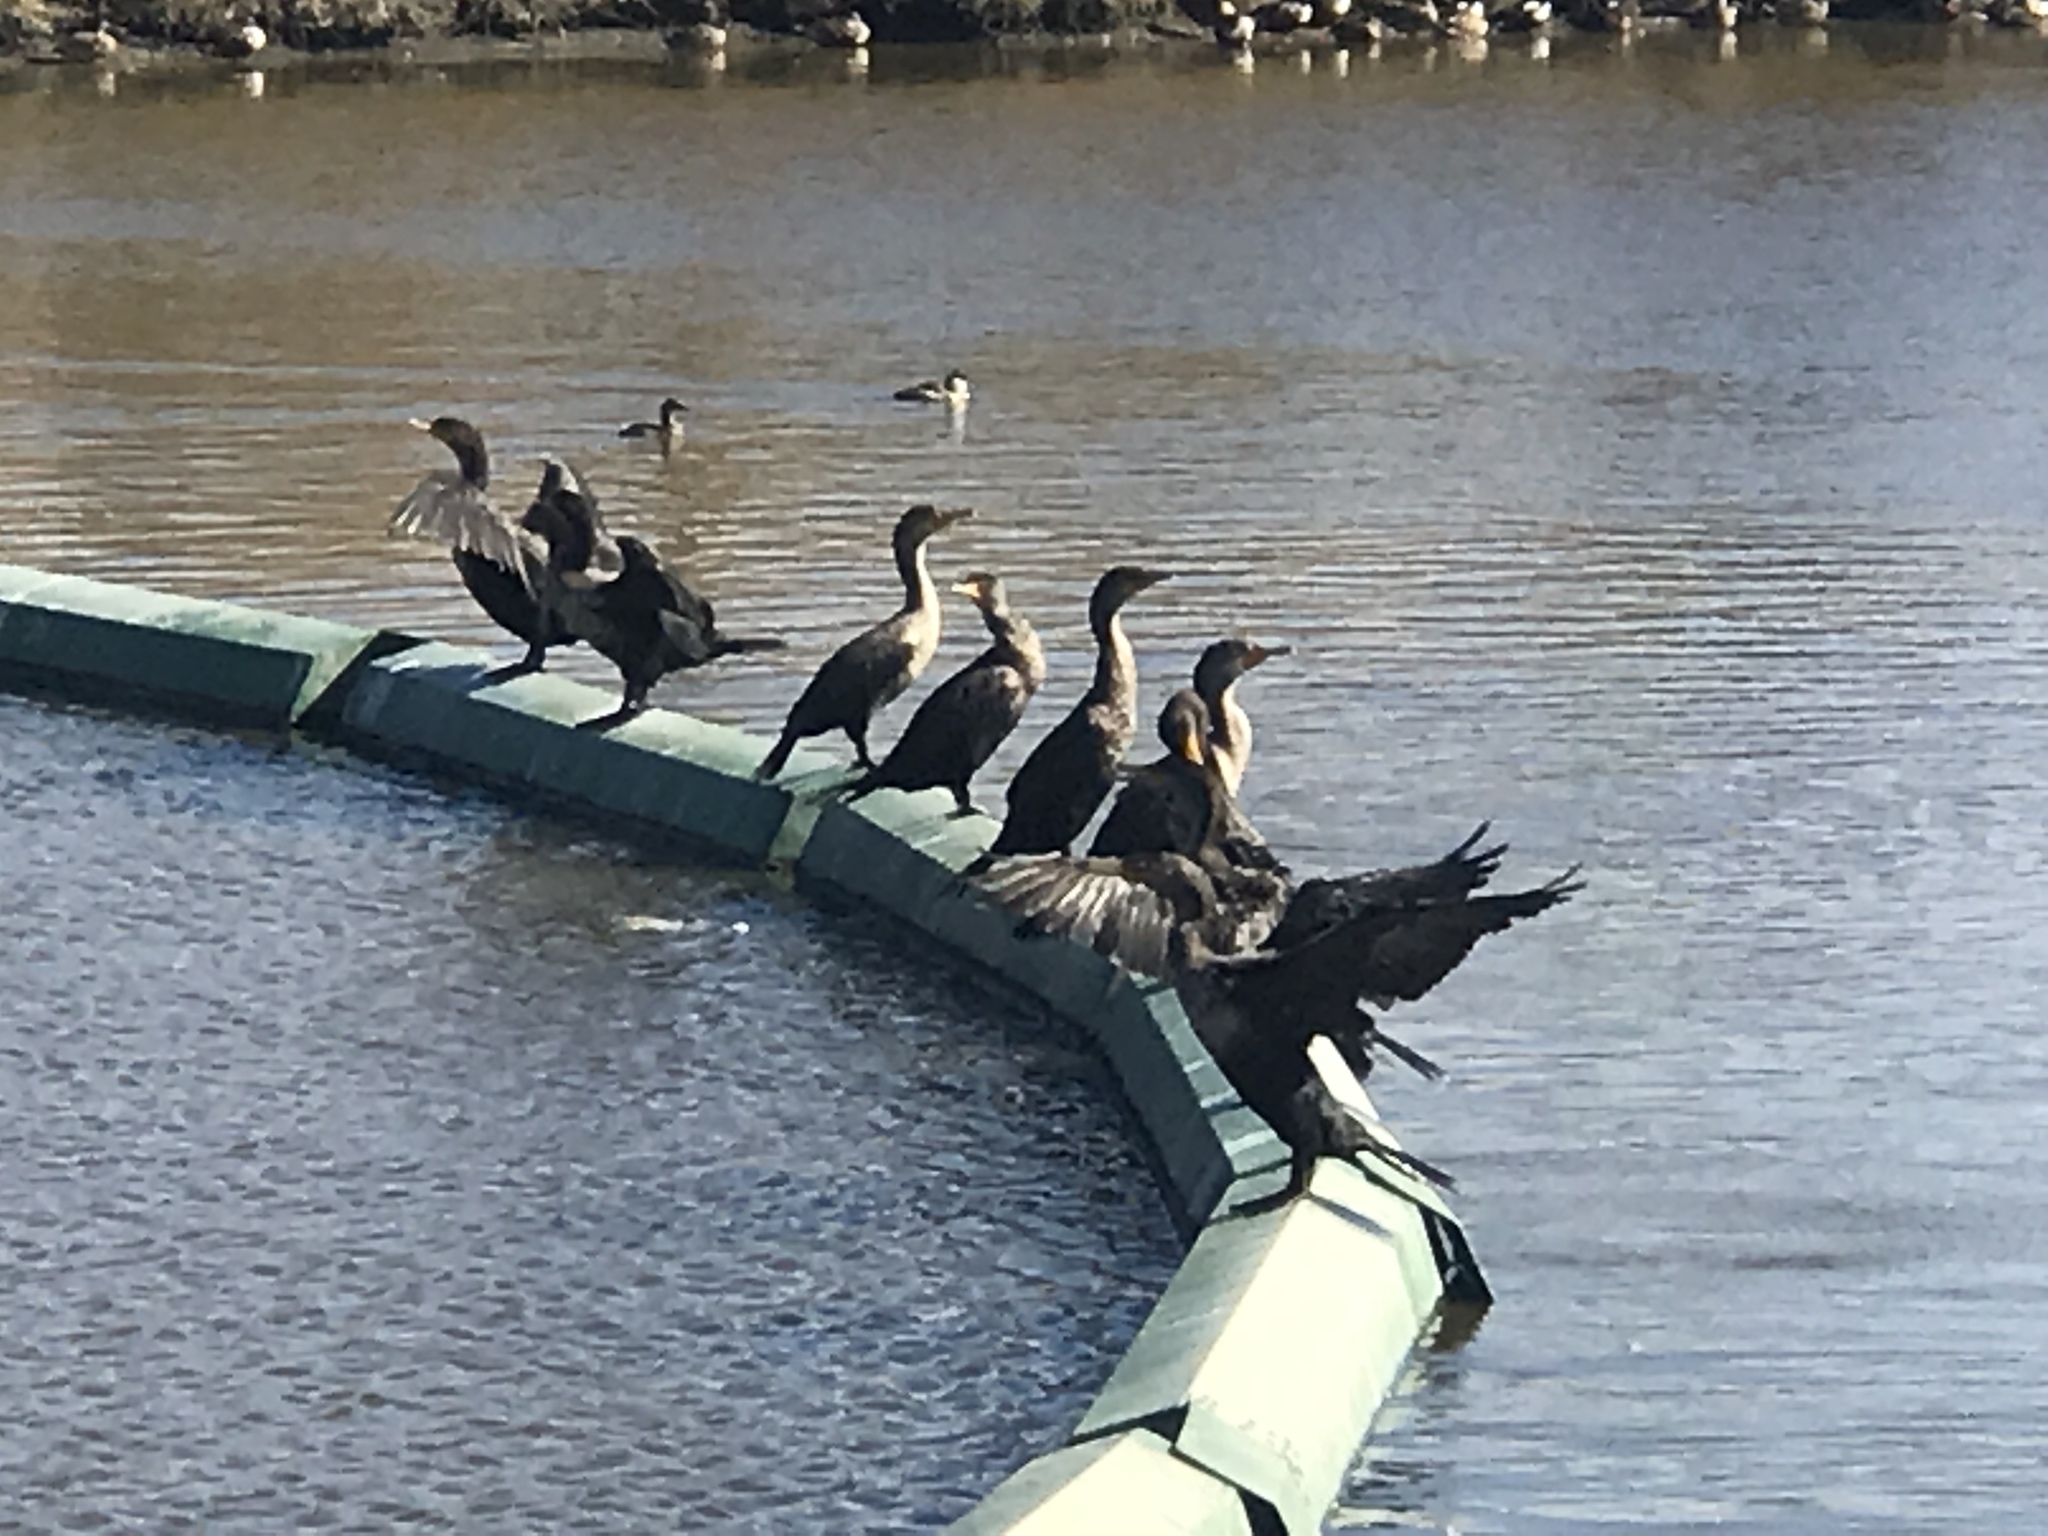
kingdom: Animalia
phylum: Chordata
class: Aves
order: Suliformes
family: Phalacrocoracidae
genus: Phalacrocorax
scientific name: Phalacrocorax auritus
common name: Double-crested cormorant
